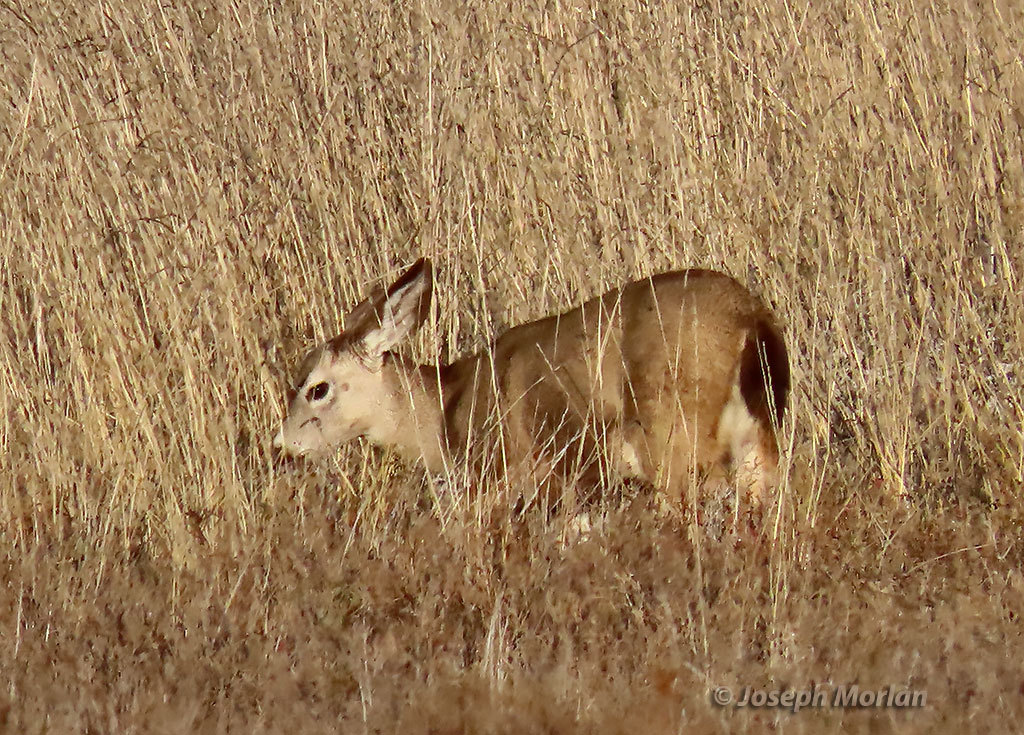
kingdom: Animalia
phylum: Chordata
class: Mammalia
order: Artiodactyla
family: Cervidae
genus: Odocoileus
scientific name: Odocoileus hemionus
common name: Mule deer
